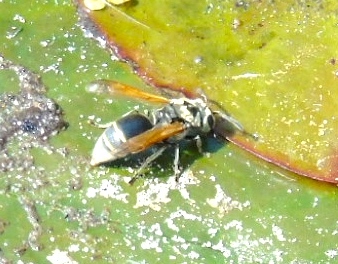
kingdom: Animalia
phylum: Arthropoda
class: Insecta
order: Hymenoptera
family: Vespidae
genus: Brachygastra
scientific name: Brachygastra mellifica
